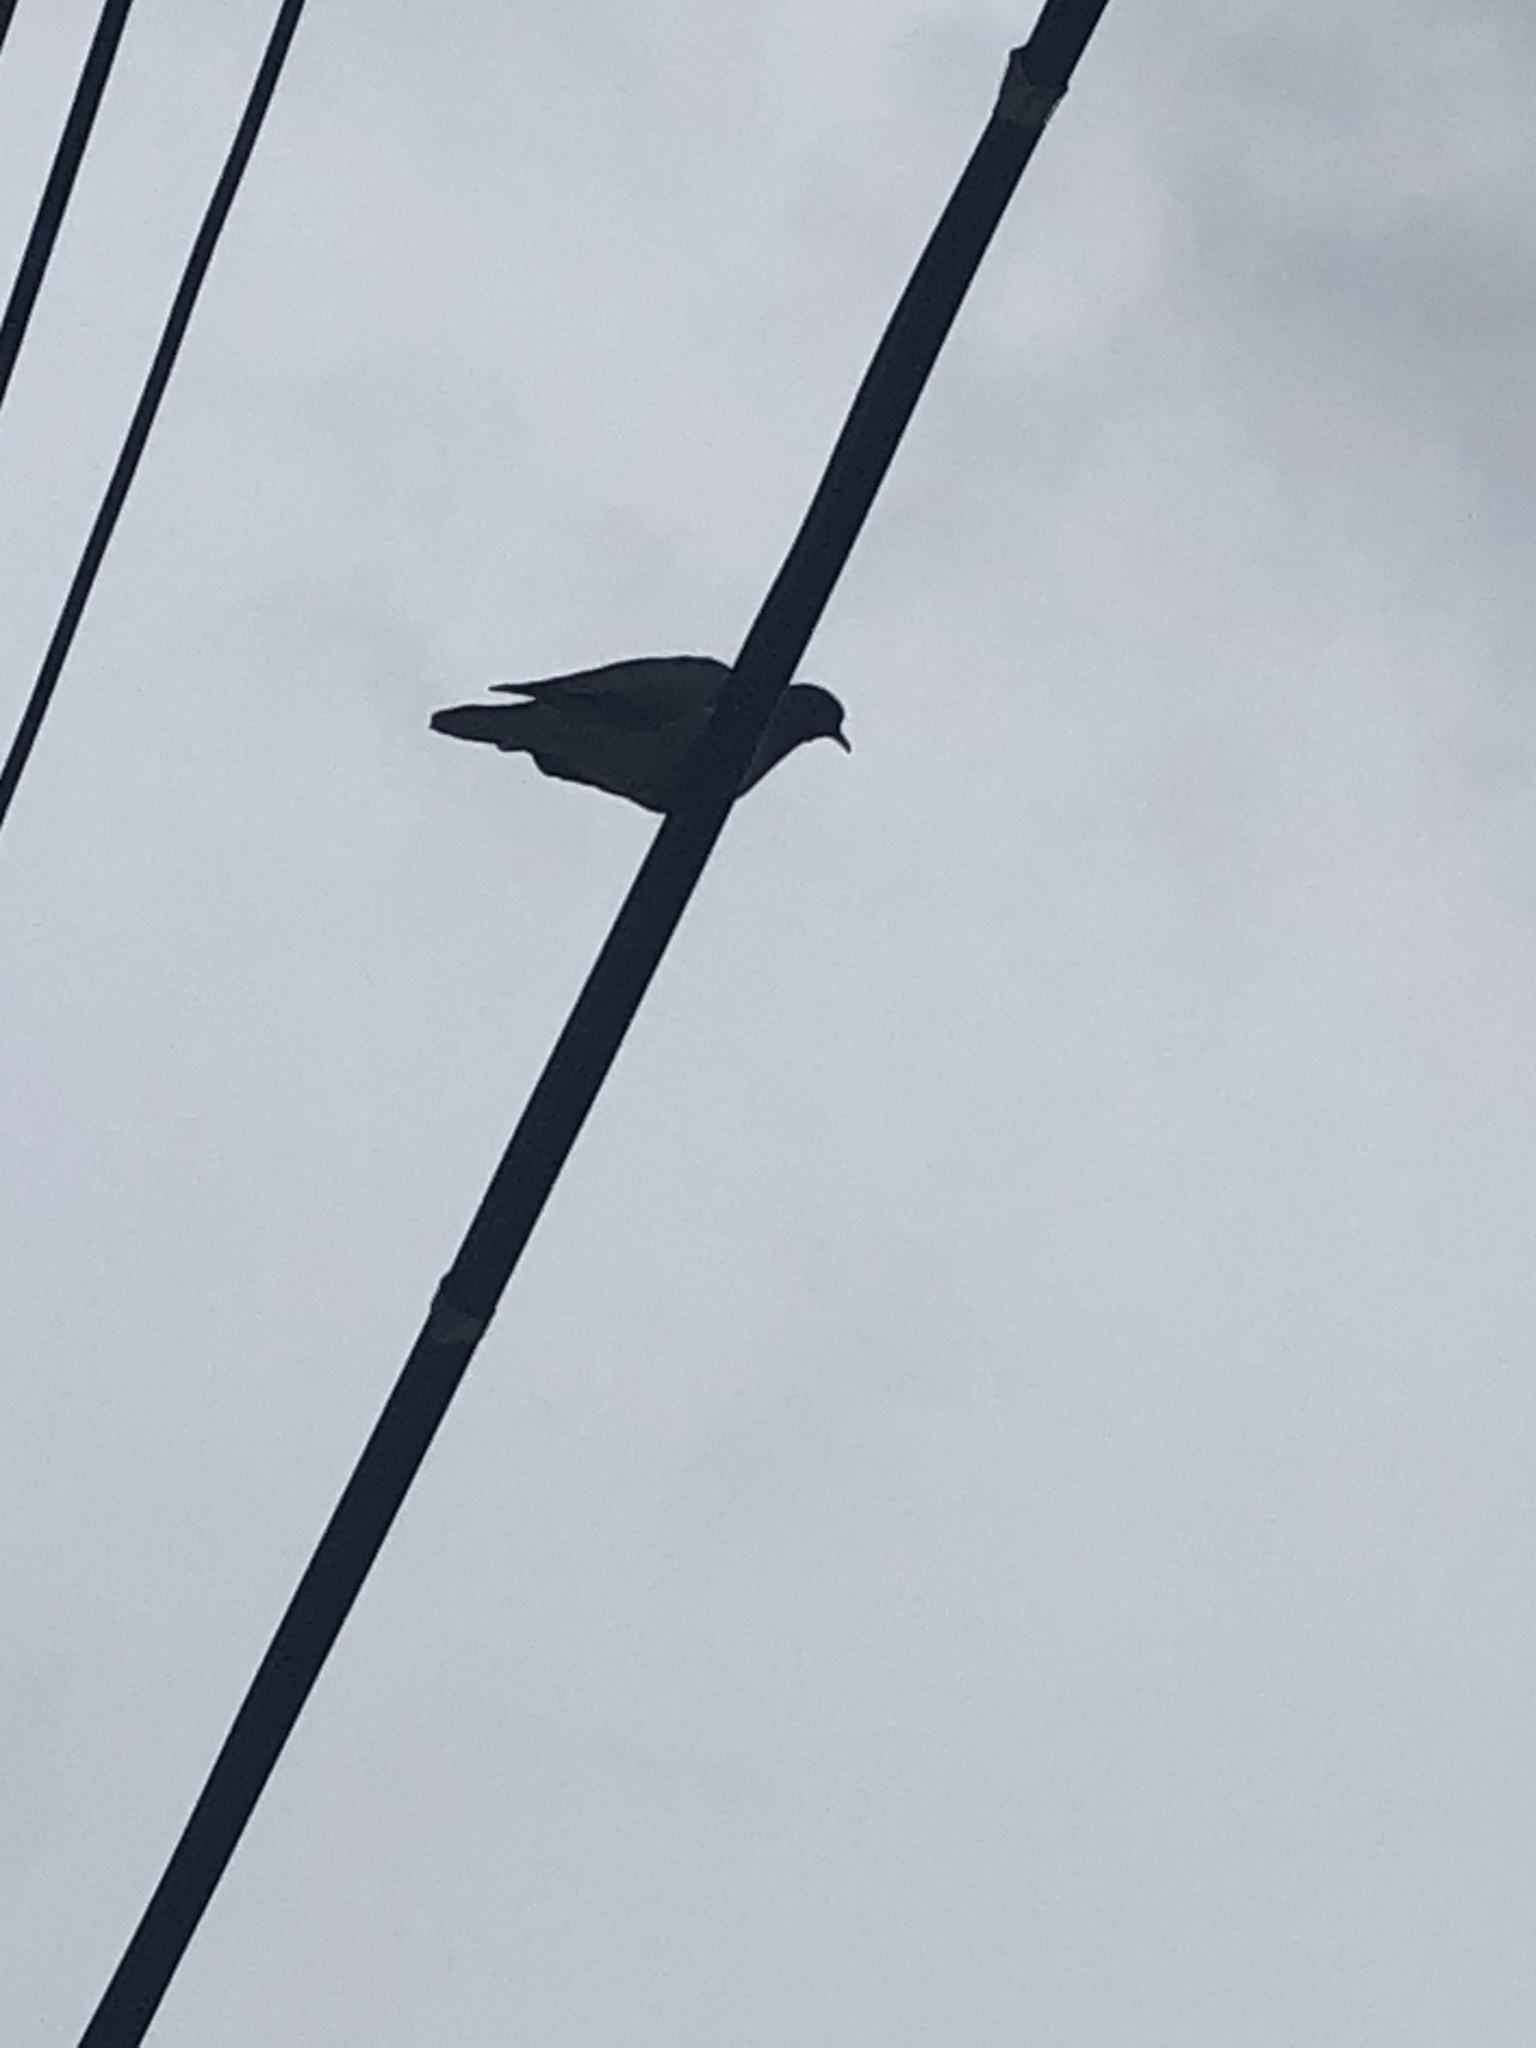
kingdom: Animalia
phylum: Chordata
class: Aves
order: Columbiformes
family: Columbidae
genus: Zenaida
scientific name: Zenaida auriculata
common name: Eared dove
